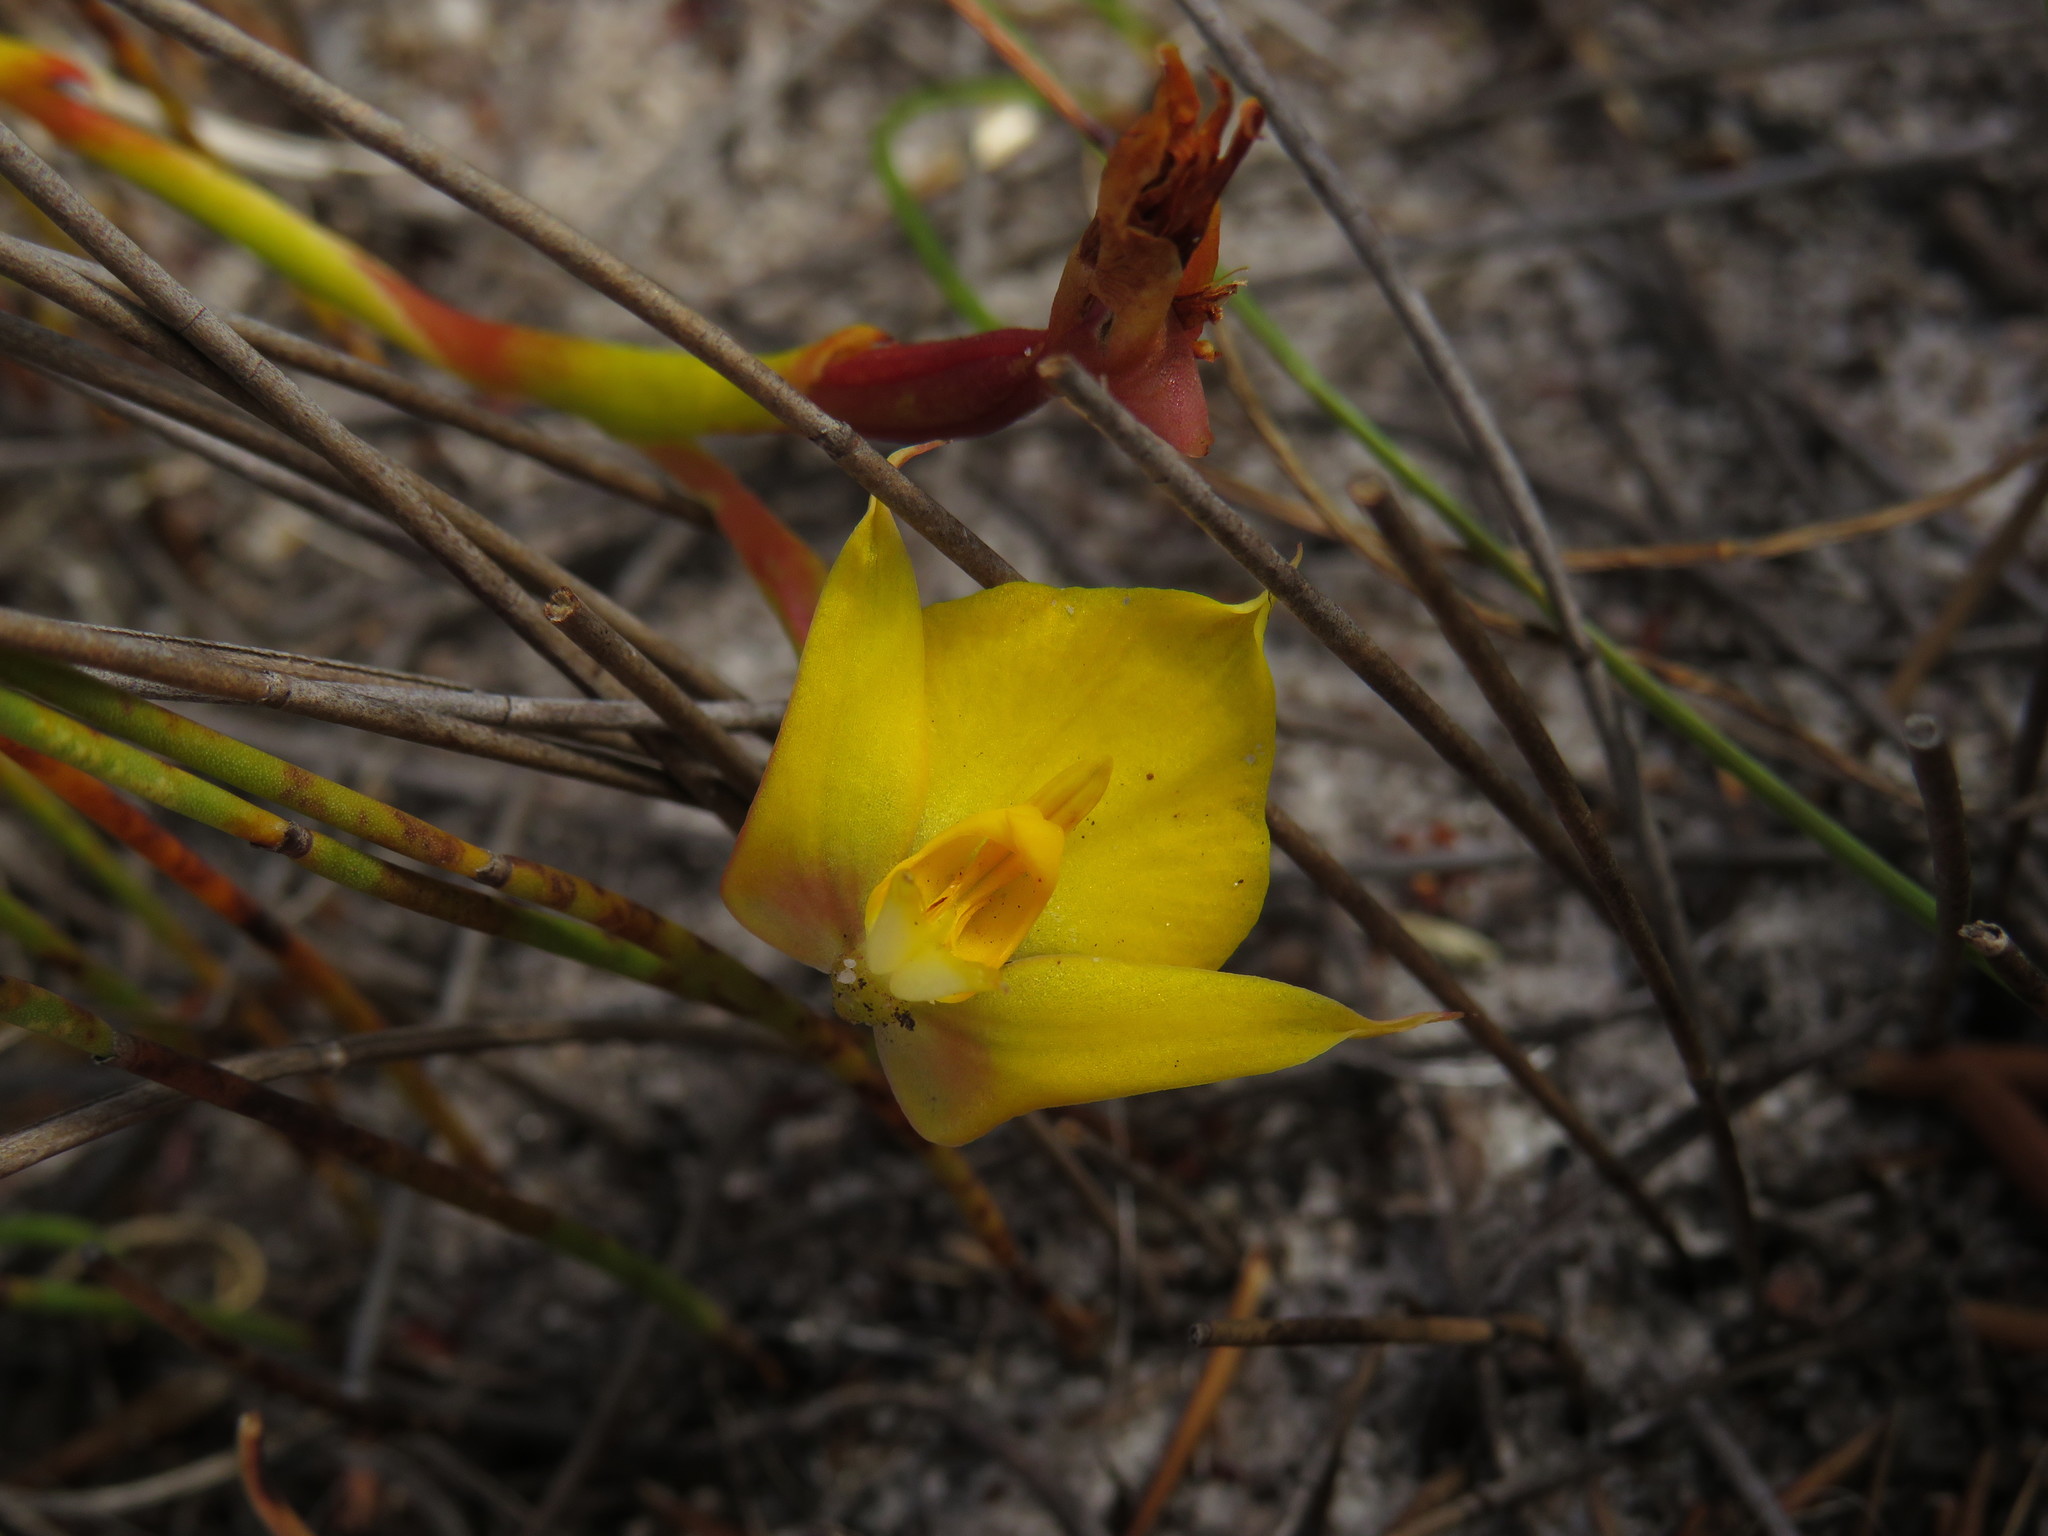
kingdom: Plantae
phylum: Tracheophyta
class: Liliopsida
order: Asparagales
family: Orchidaceae
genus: Disa
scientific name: Disa tenuifolia
